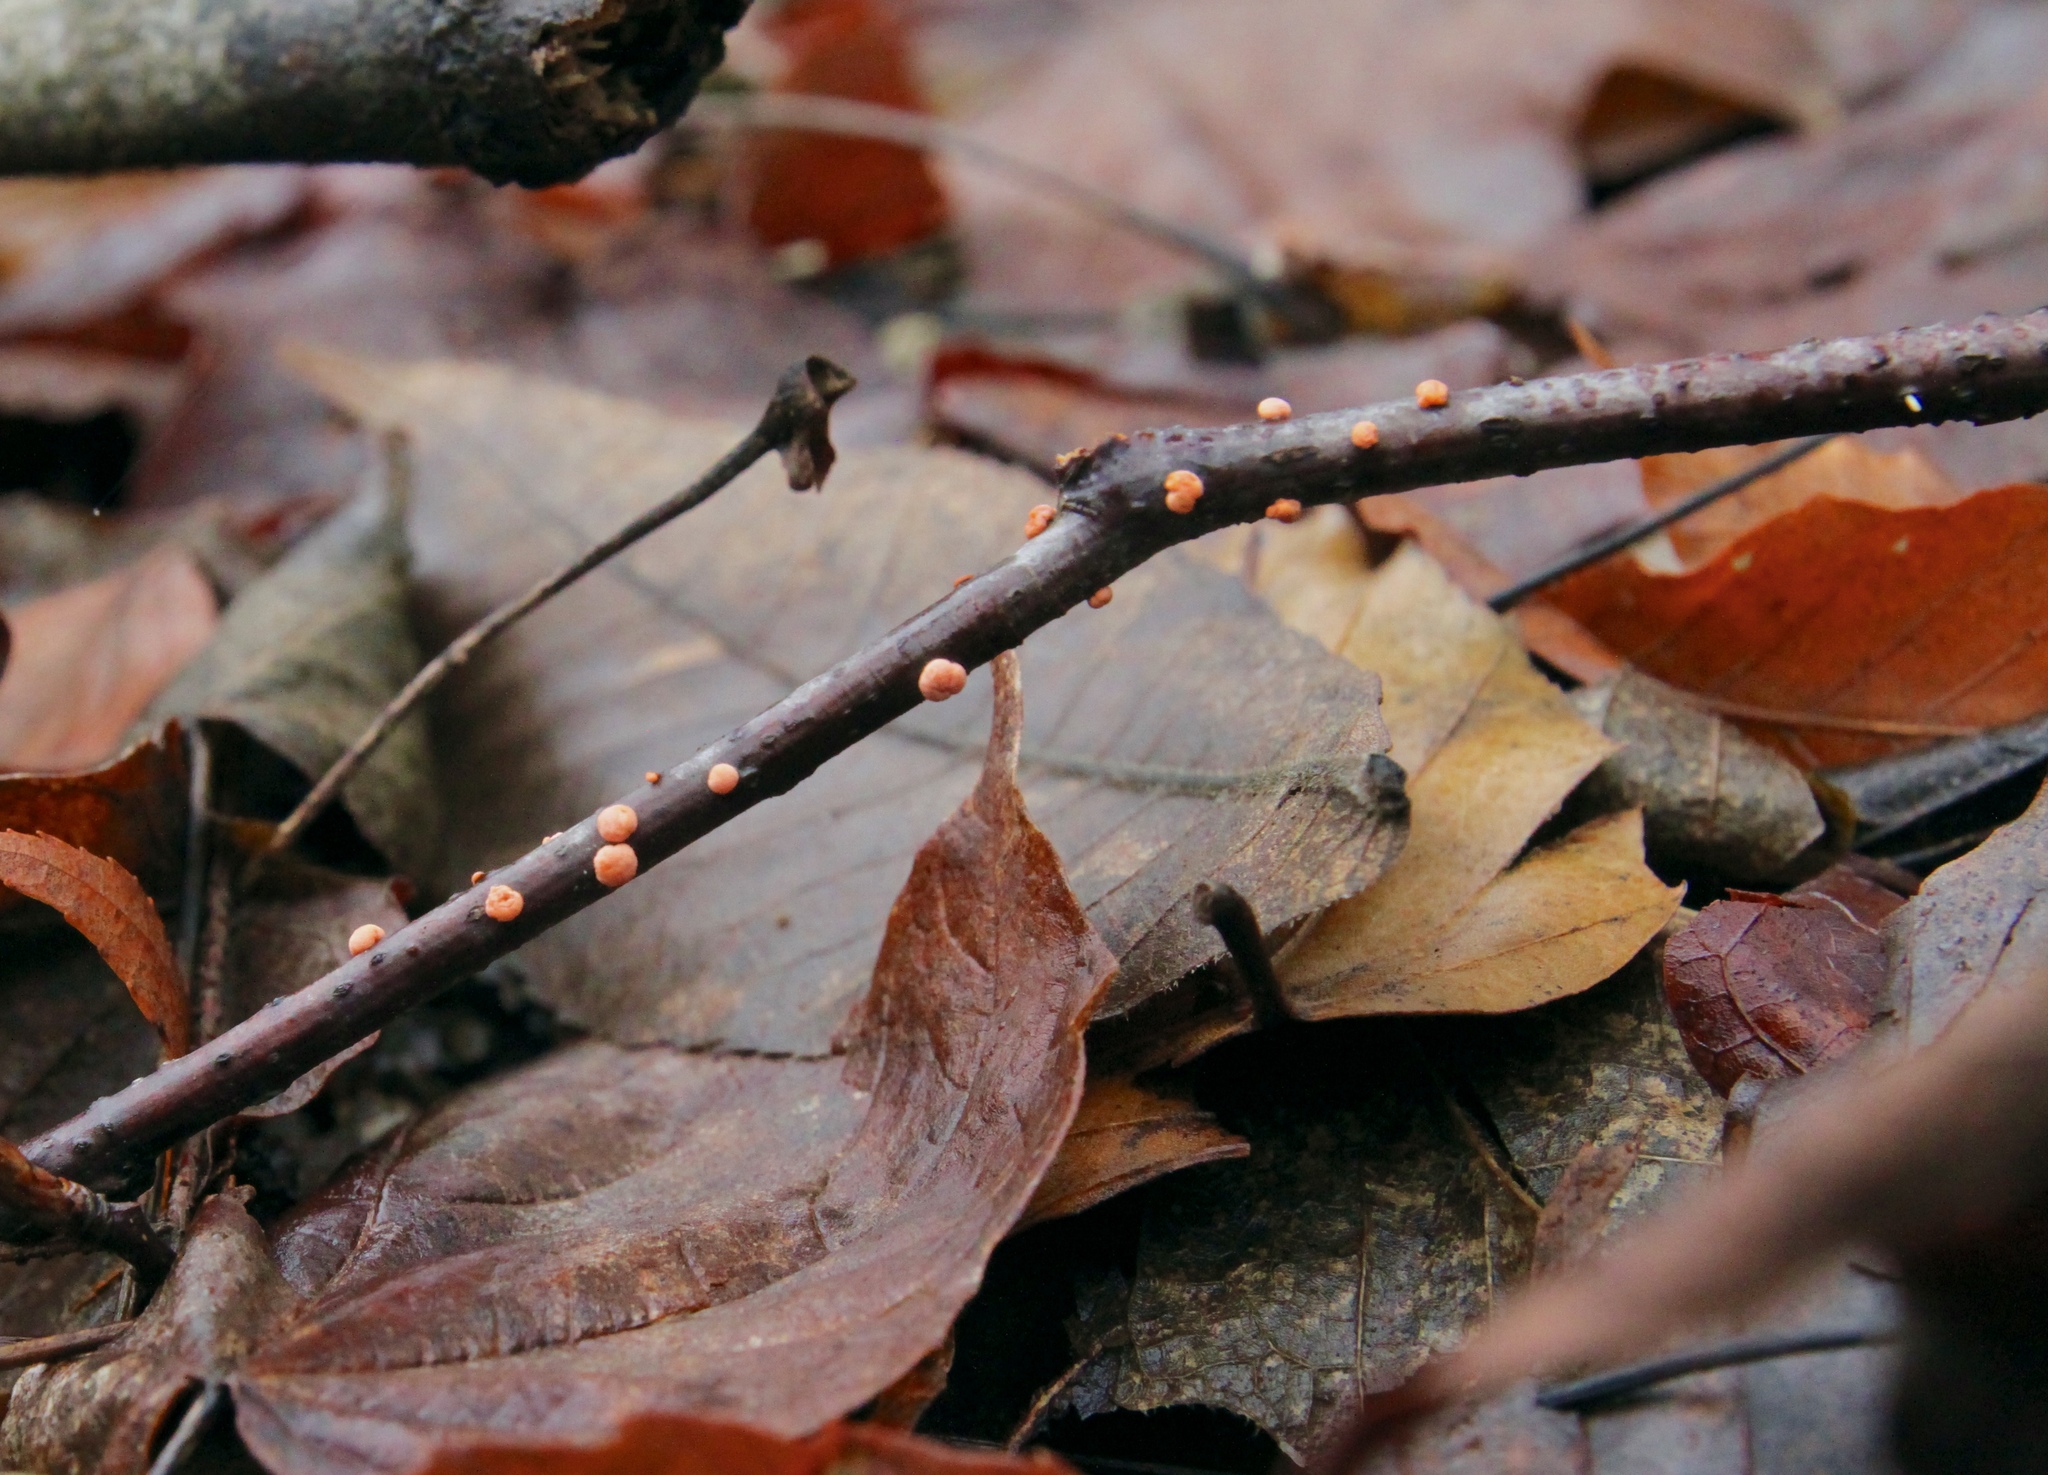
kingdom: Fungi
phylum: Ascomycota
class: Sordariomycetes
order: Hypocreales
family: Nectriaceae
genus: Nectria
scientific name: Nectria cinnabarina
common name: Coral spot
